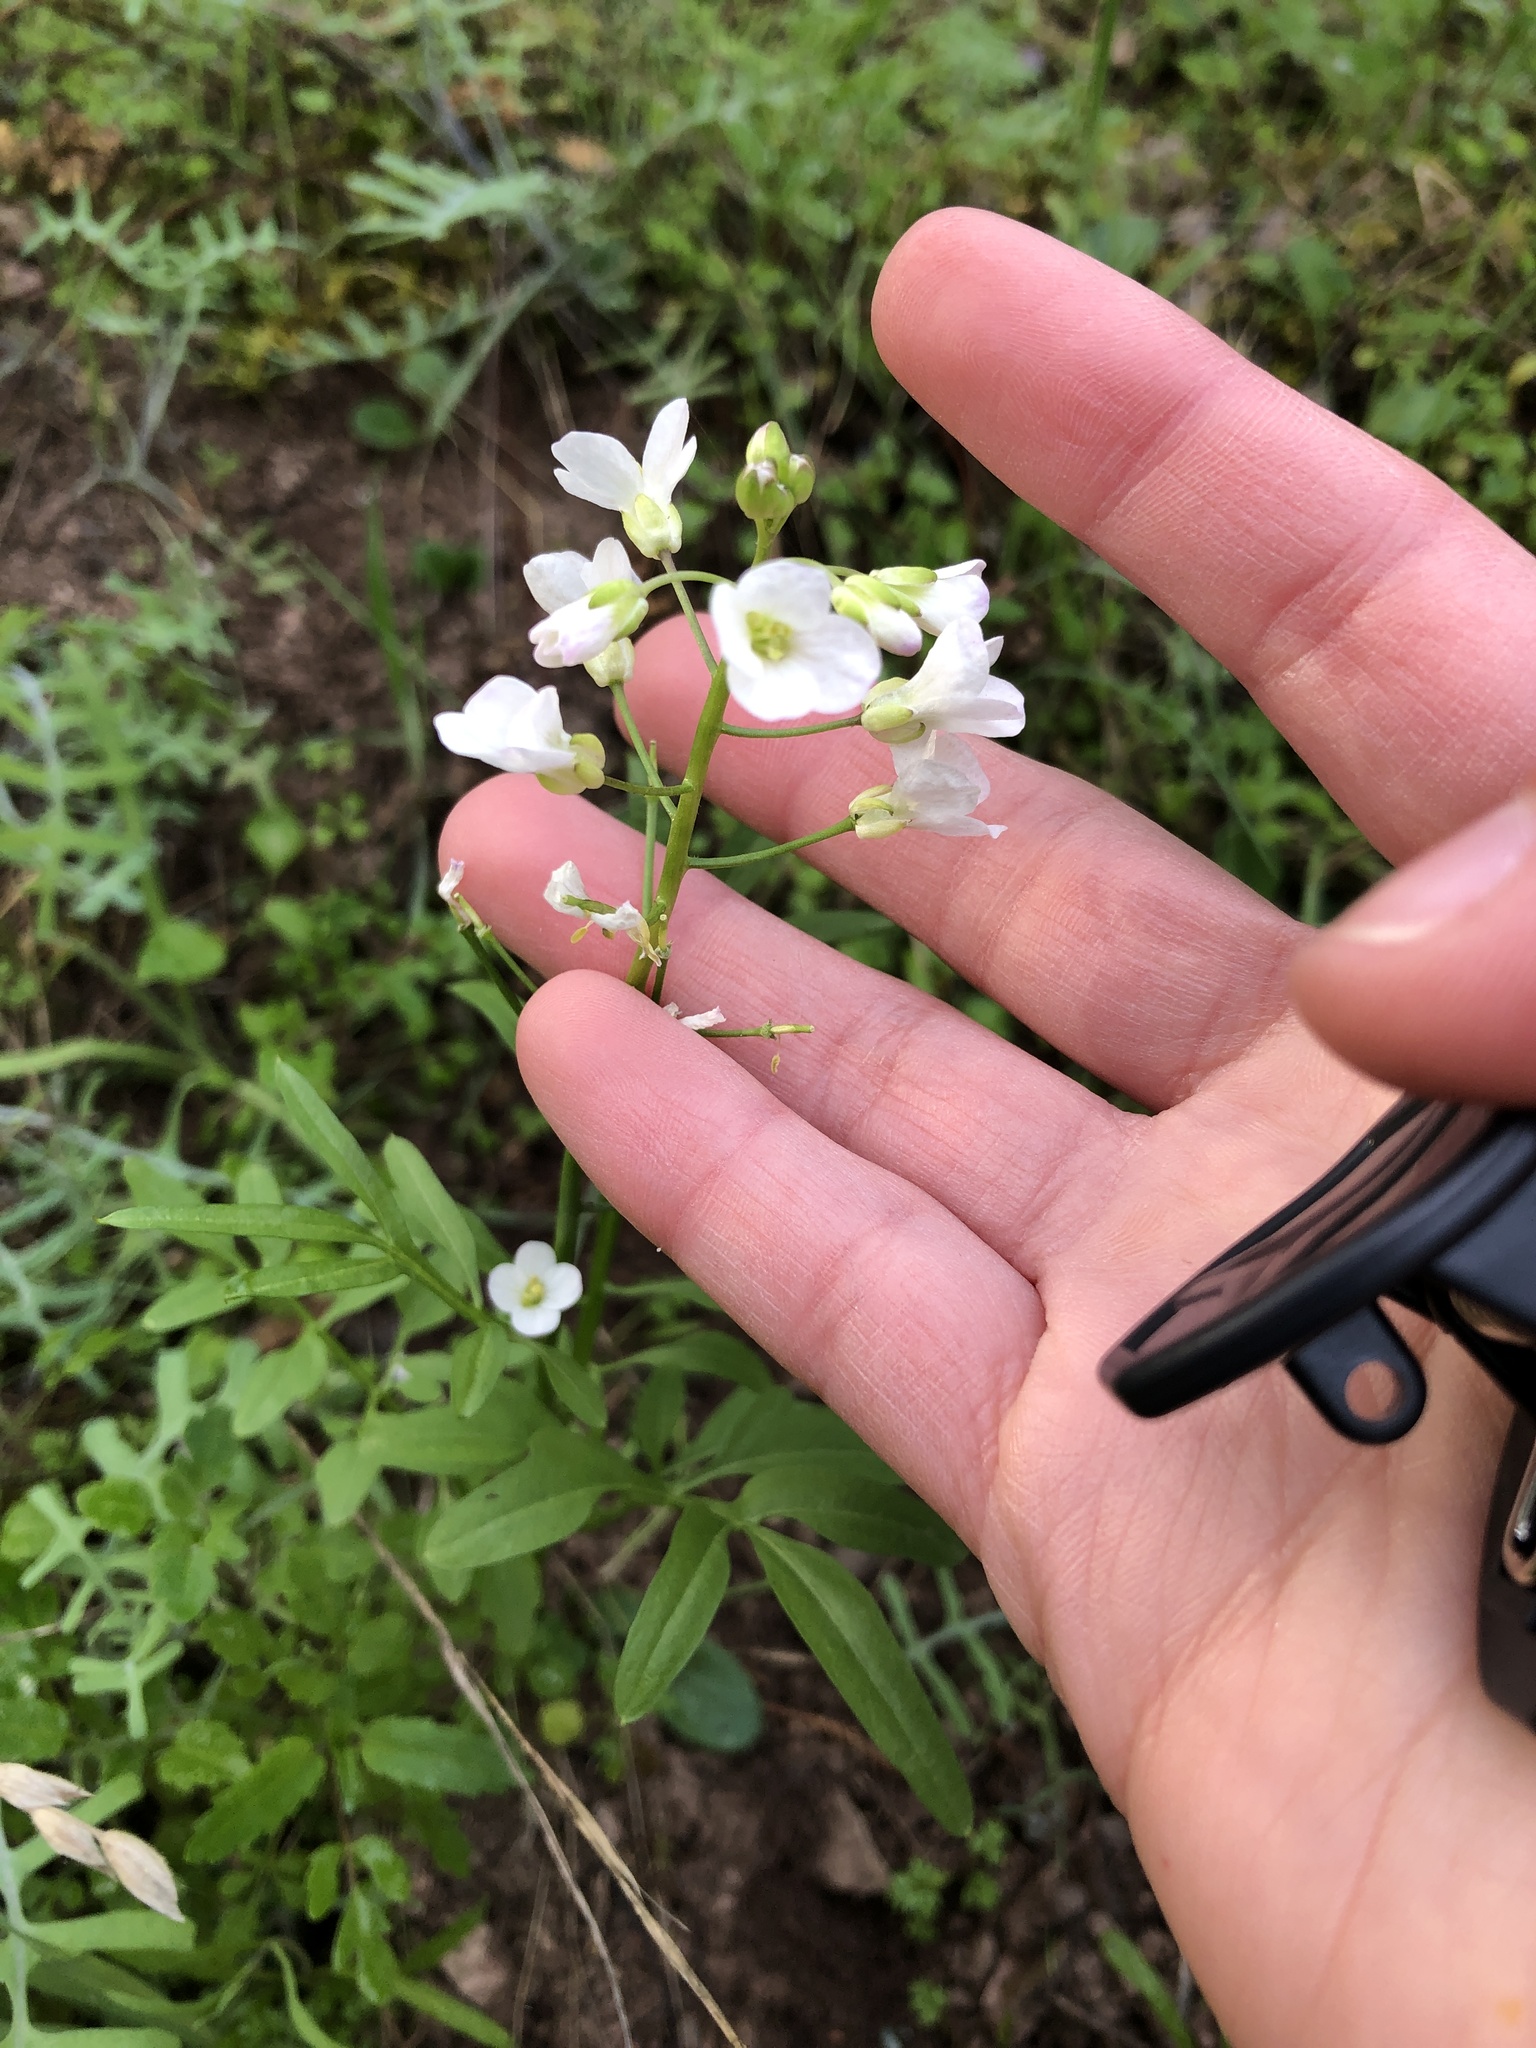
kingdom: Plantae
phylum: Tracheophyta
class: Magnoliopsida
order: Brassicales
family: Brassicaceae
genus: Cardamine
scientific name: Cardamine californica
